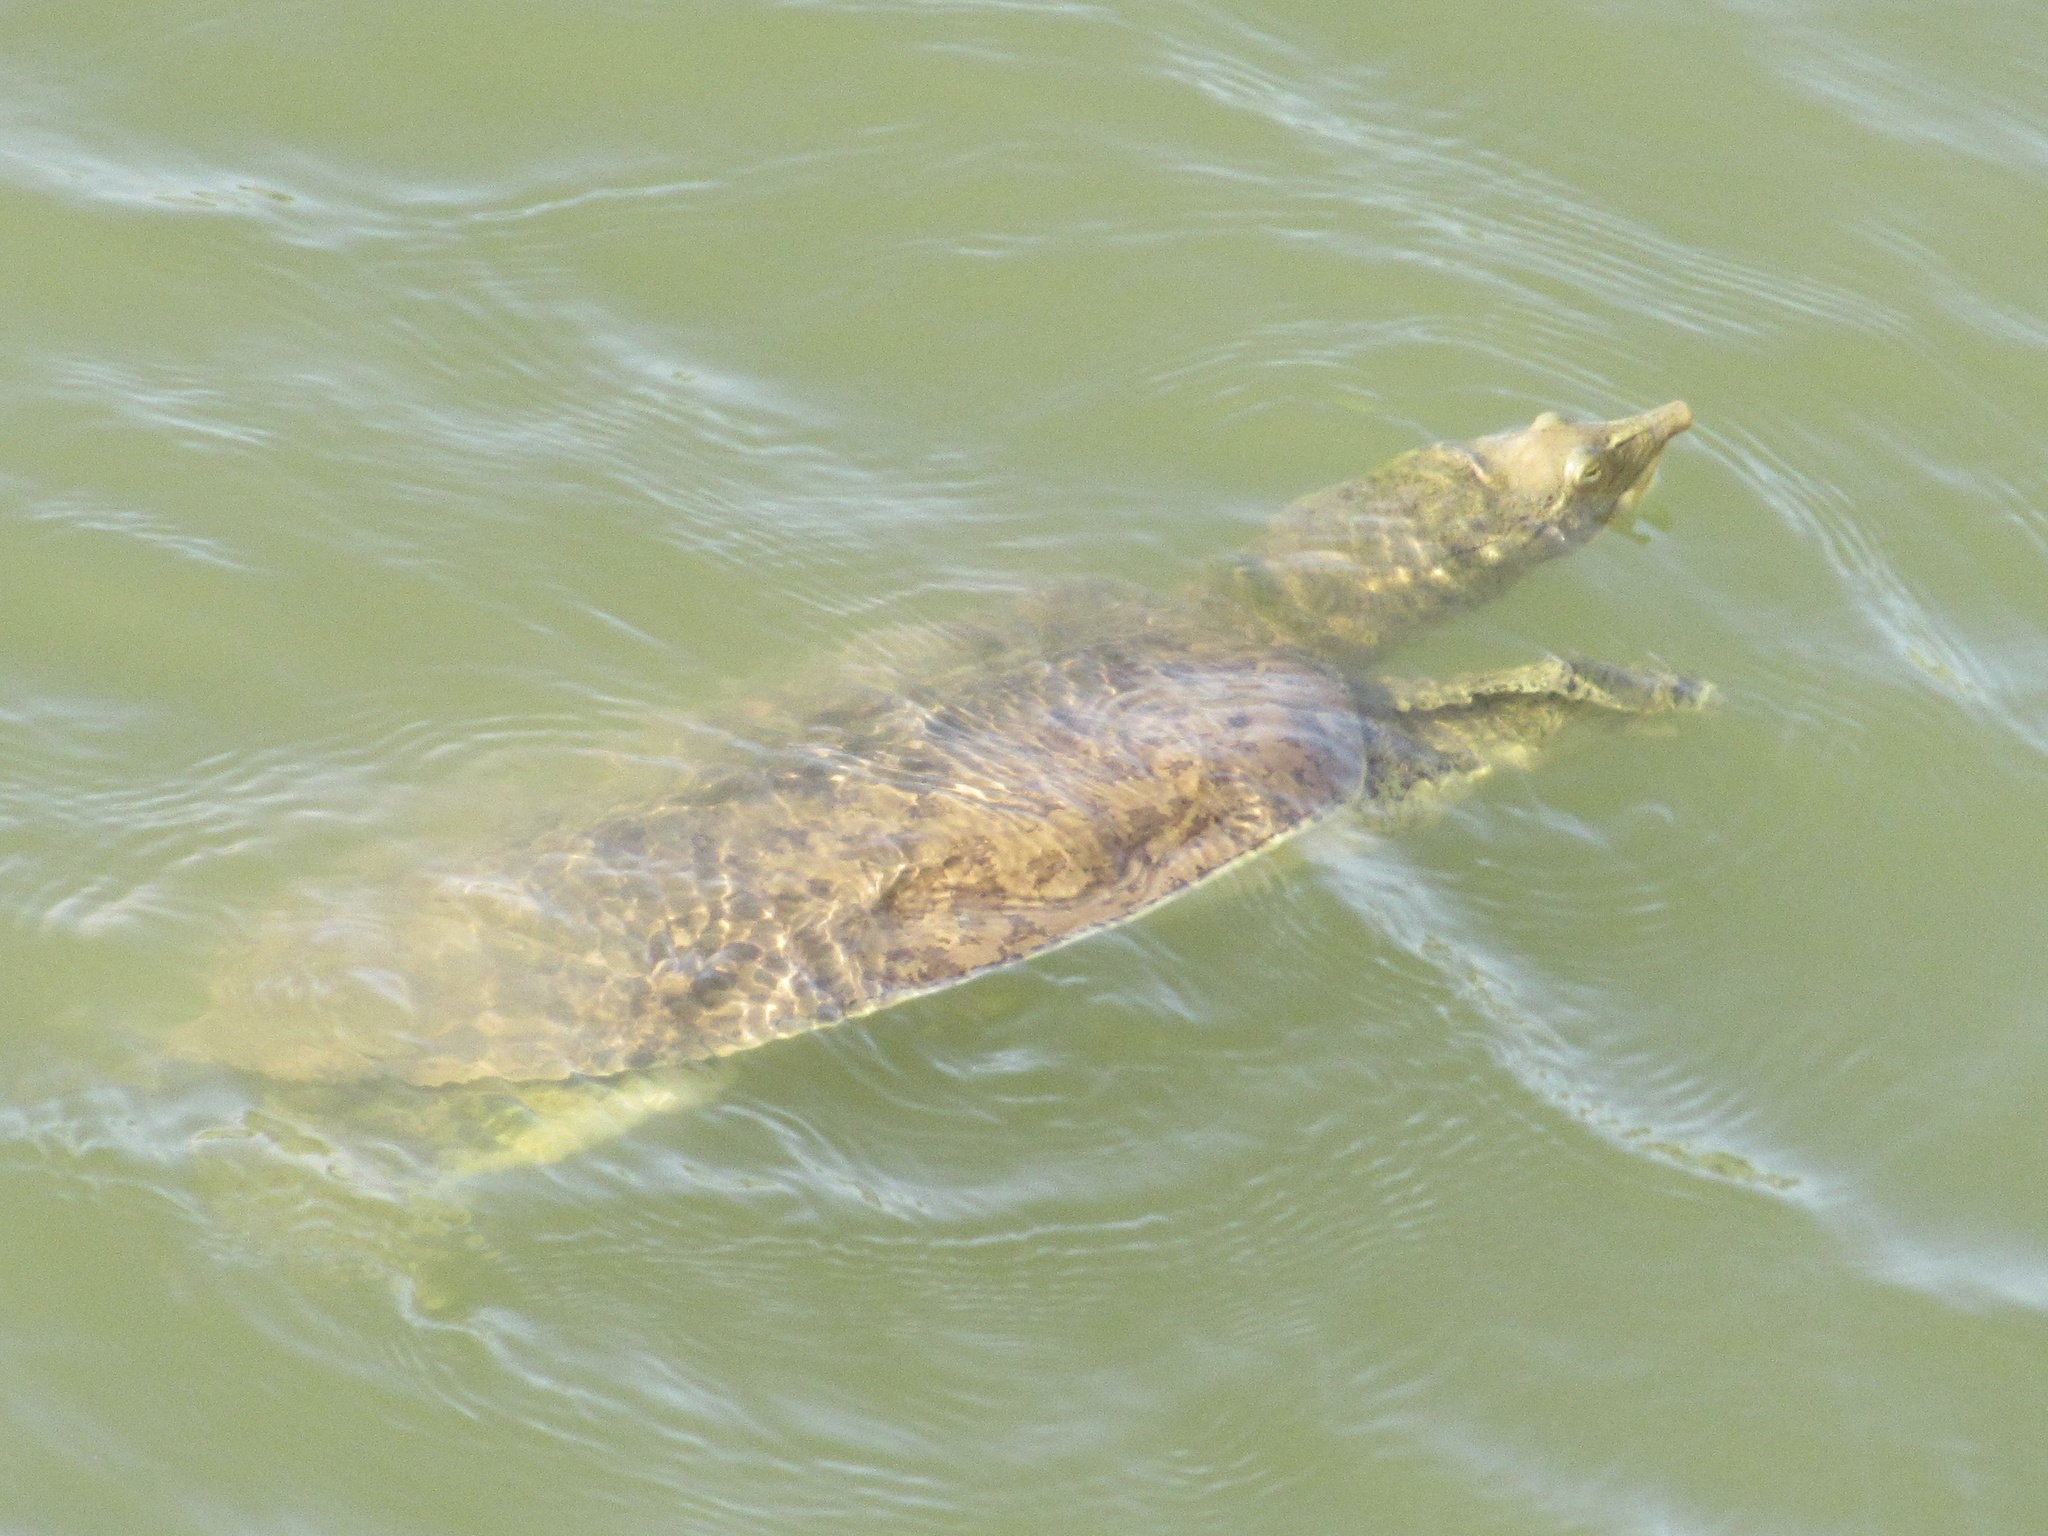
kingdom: Animalia
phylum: Chordata
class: Testudines
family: Trionychidae
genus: Apalone
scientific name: Apalone spinifera
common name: Spiny softshell turtle
